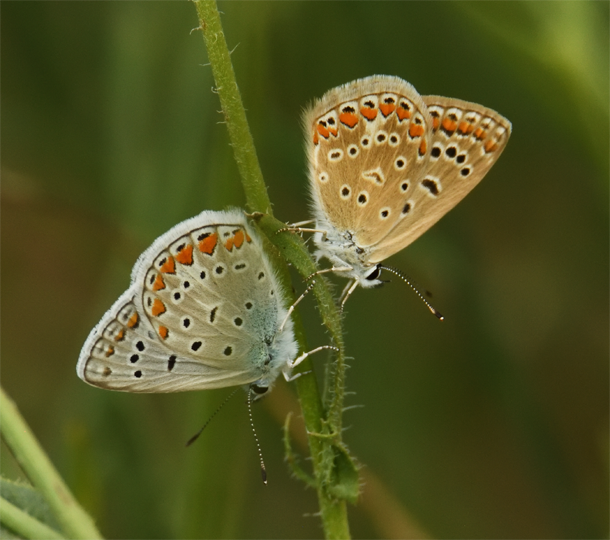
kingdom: Animalia
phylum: Arthropoda
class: Insecta
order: Lepidoptera
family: Lycaenidae
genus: Polyommatus
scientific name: Polyommatus icarus
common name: Common blue
